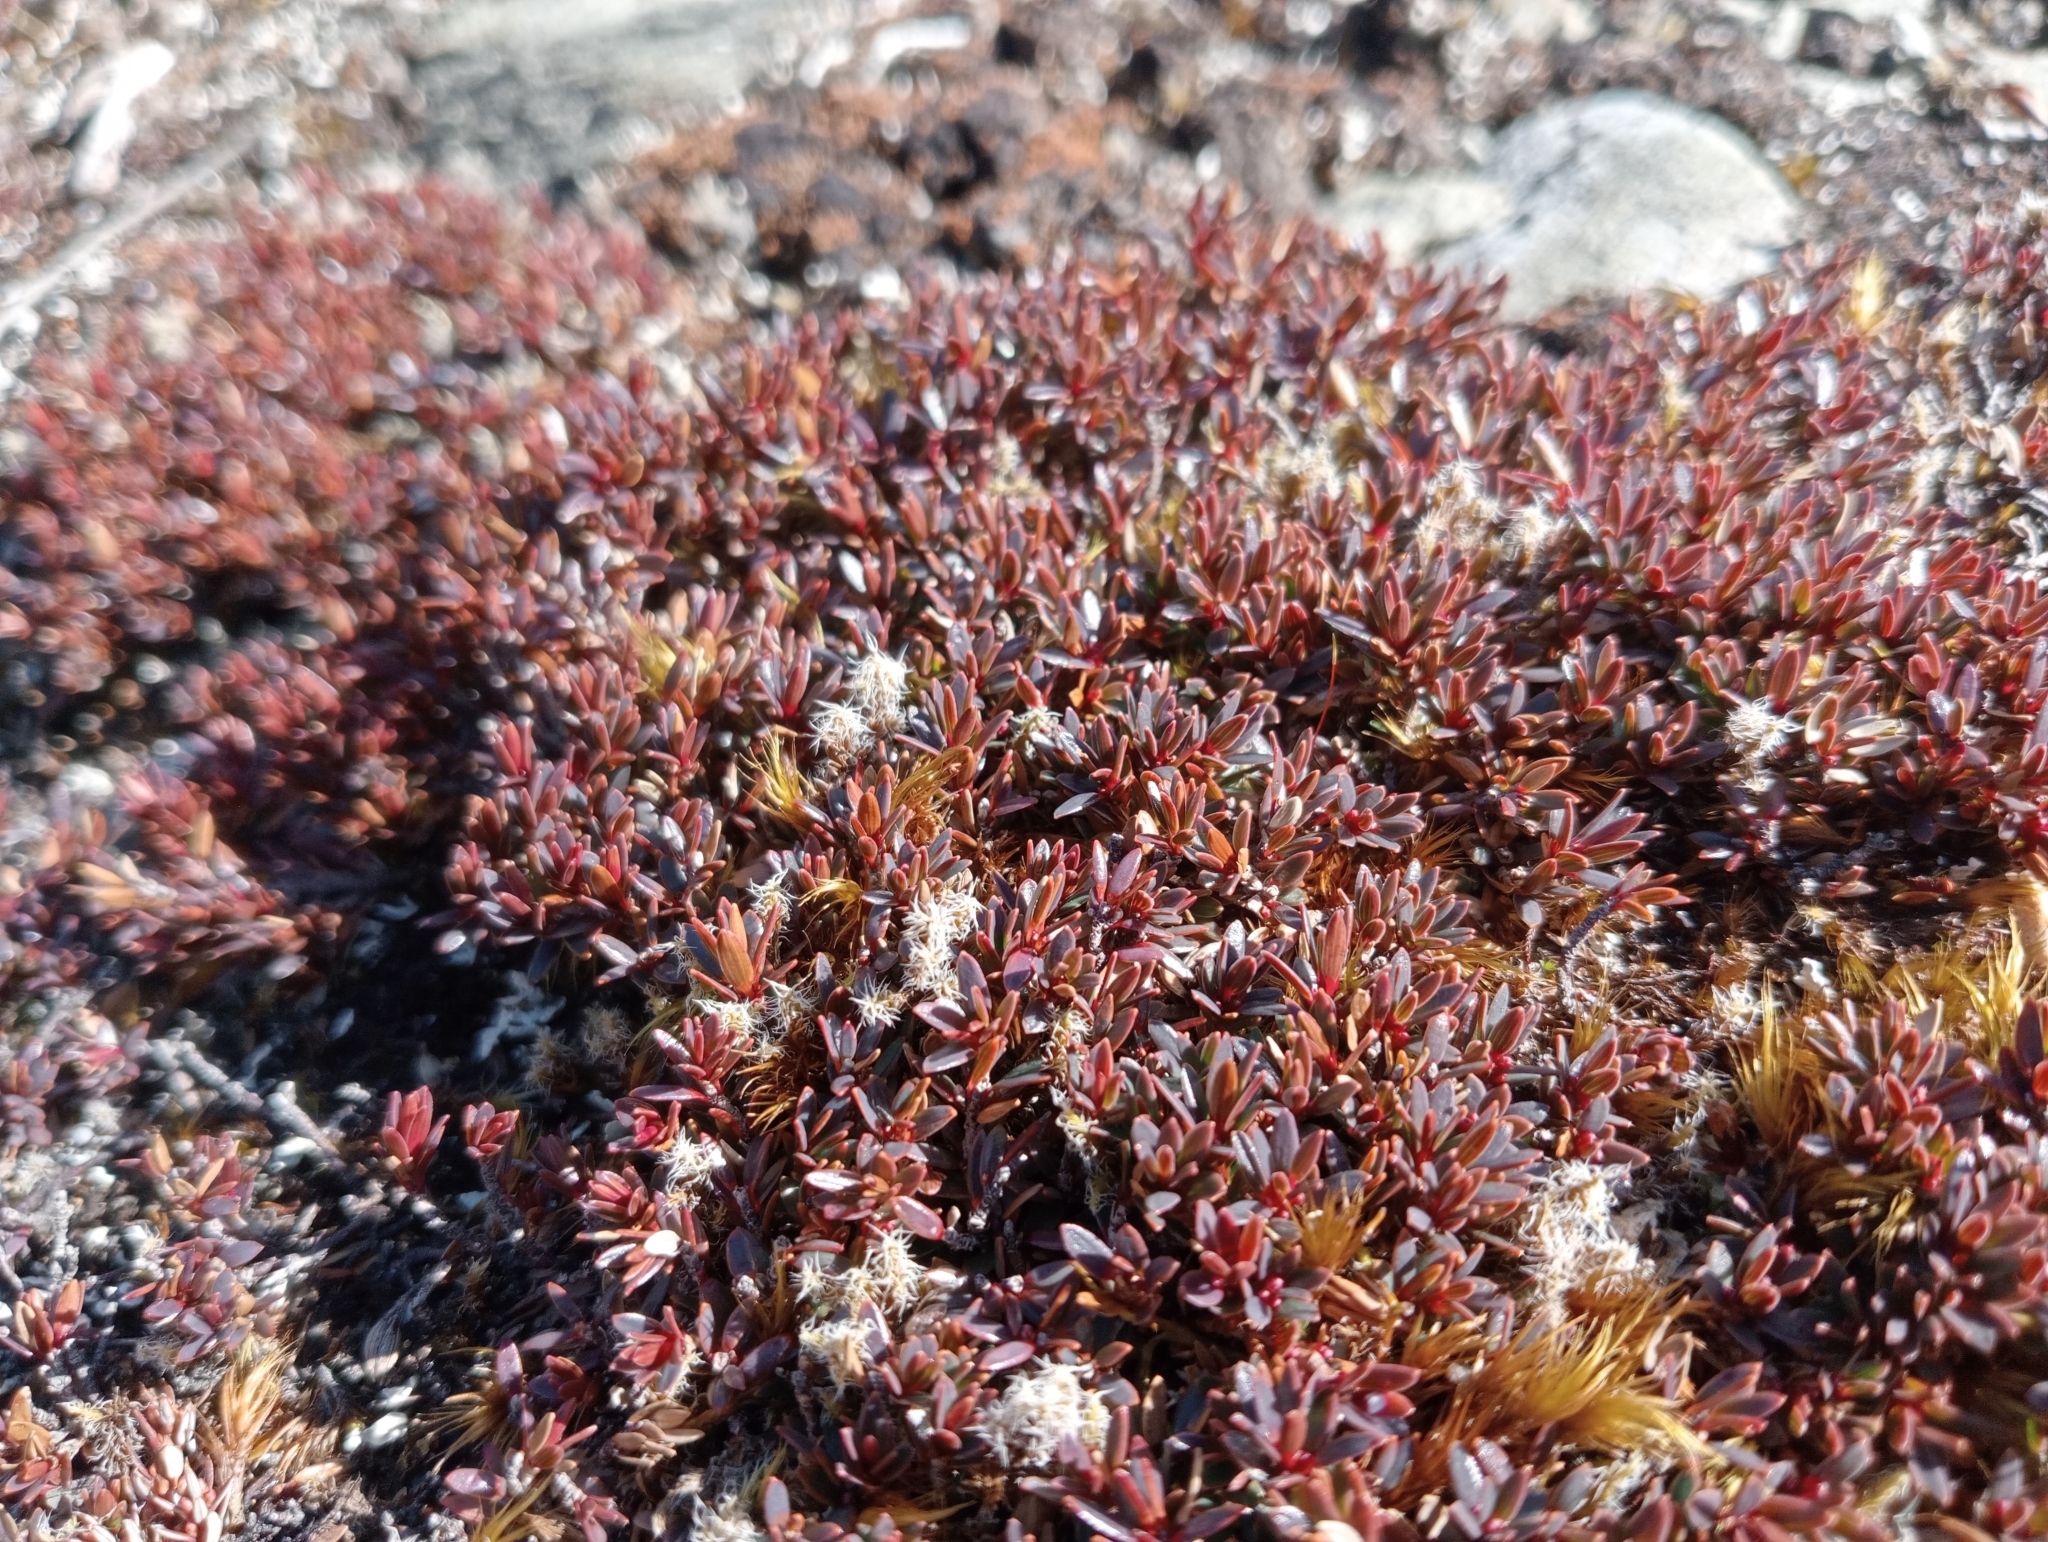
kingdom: Plantae
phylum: Tracheophyta
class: Magnoliopsida
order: Ericales
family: Ericaceae
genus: Pentachondra
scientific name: Pentachondra pumila
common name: Carpet-heath
